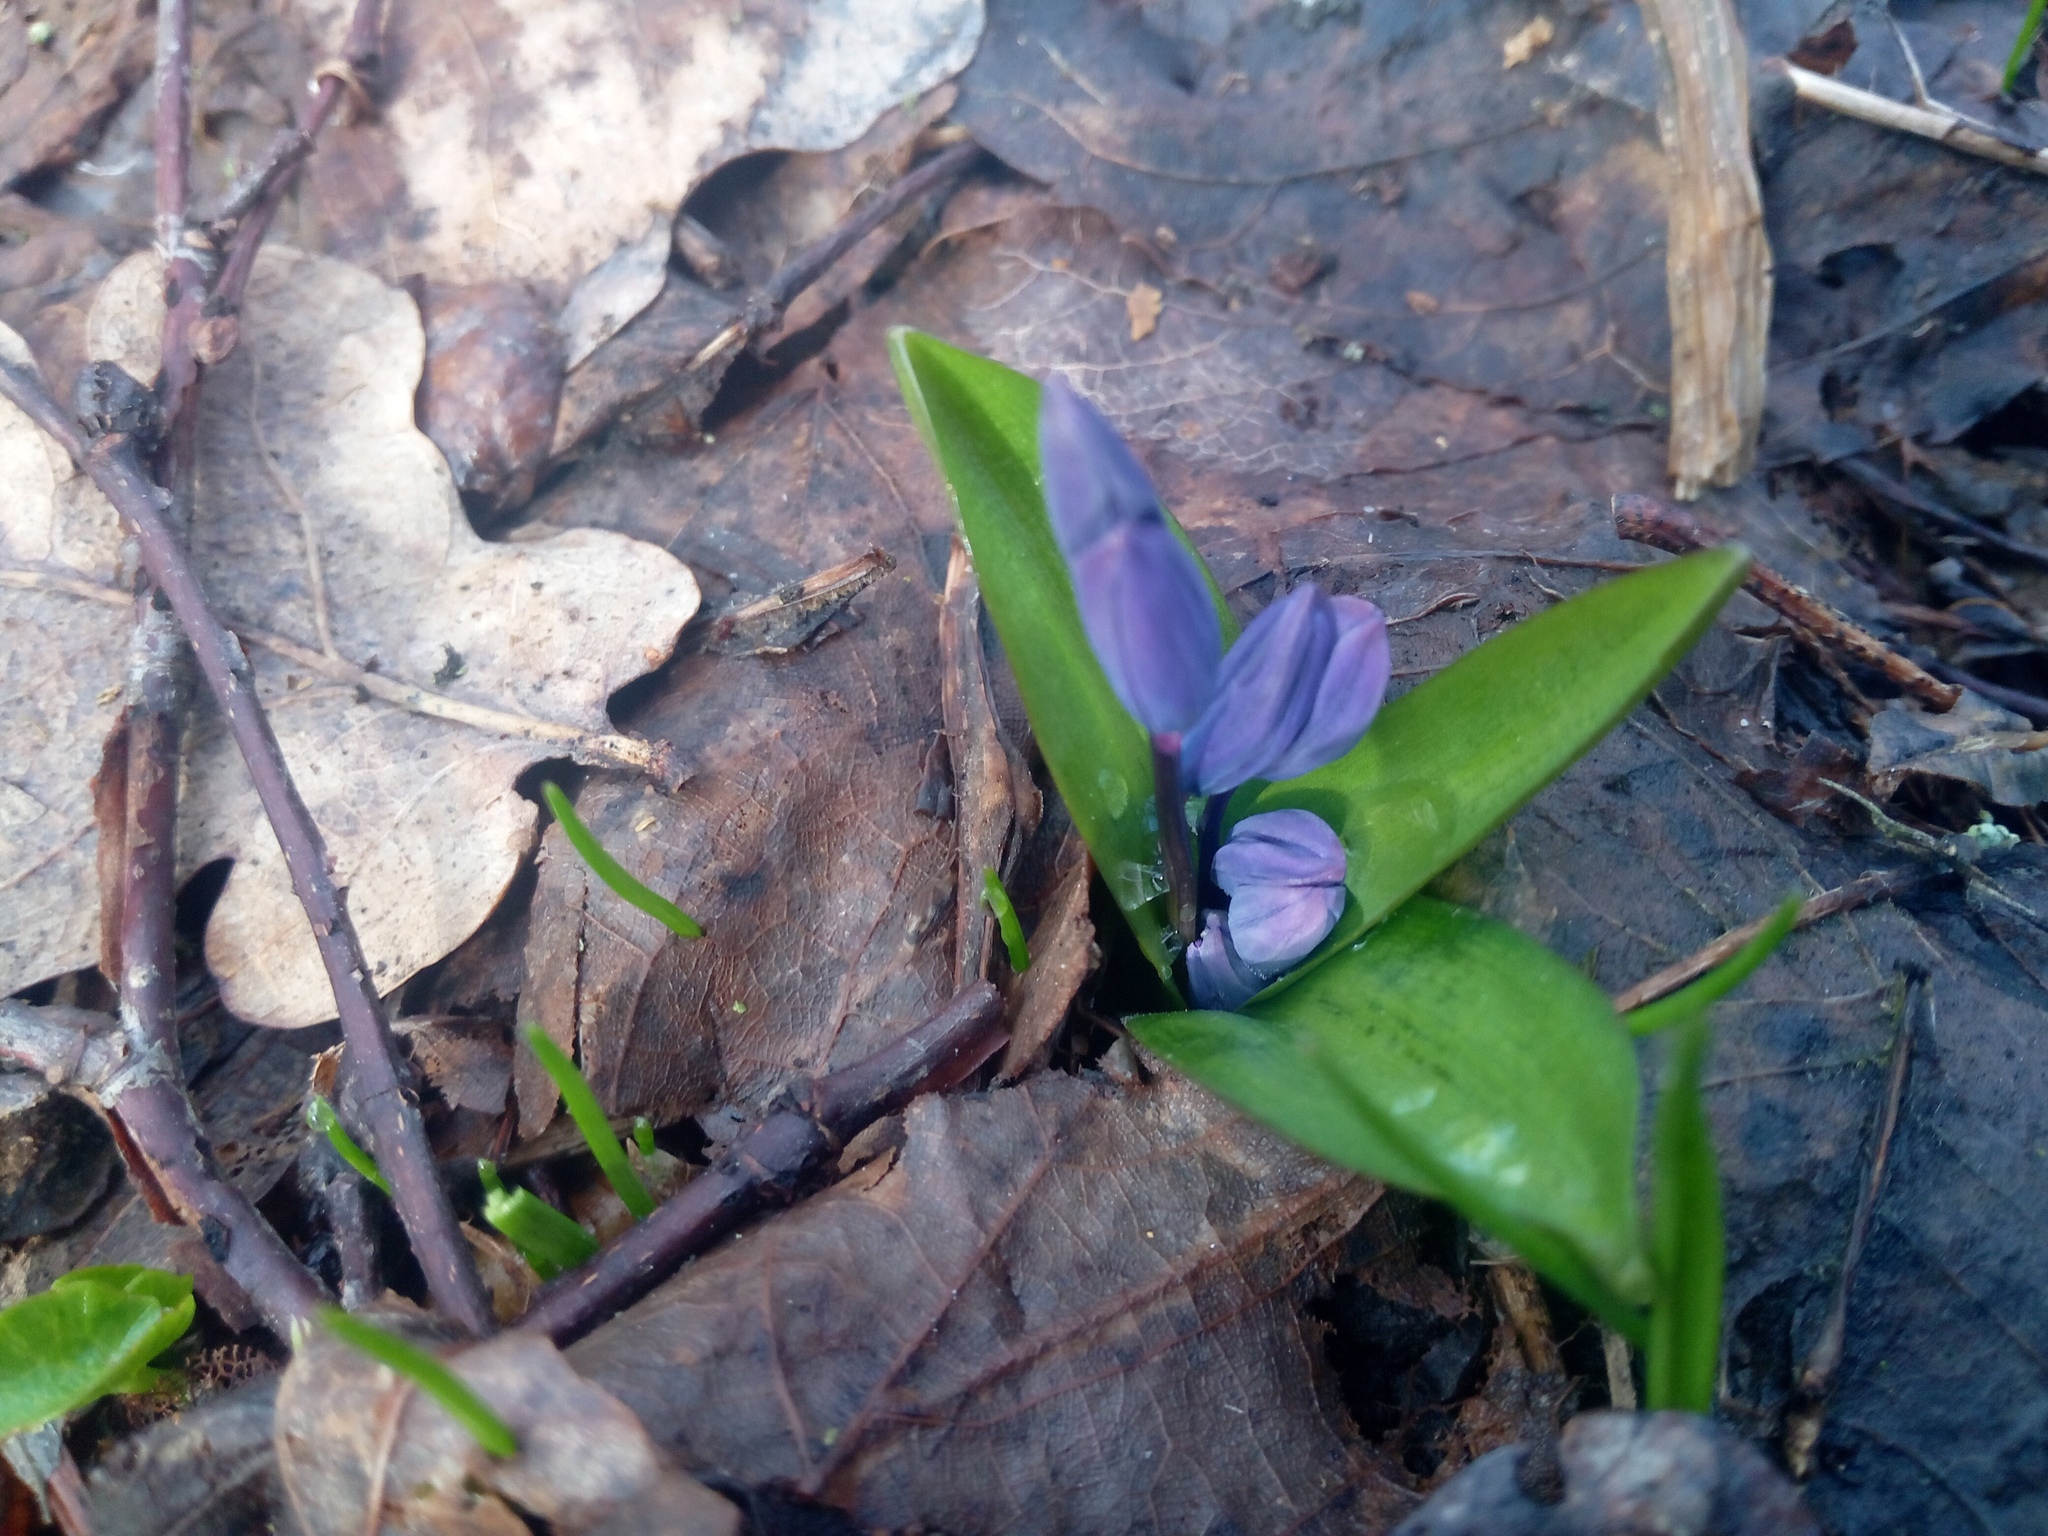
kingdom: Plantae
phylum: Tracheophyta
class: Liliopsida
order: Asparagales
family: Asparagaceae
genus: Scilla
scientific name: Scilla siberica
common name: Siberian squill
